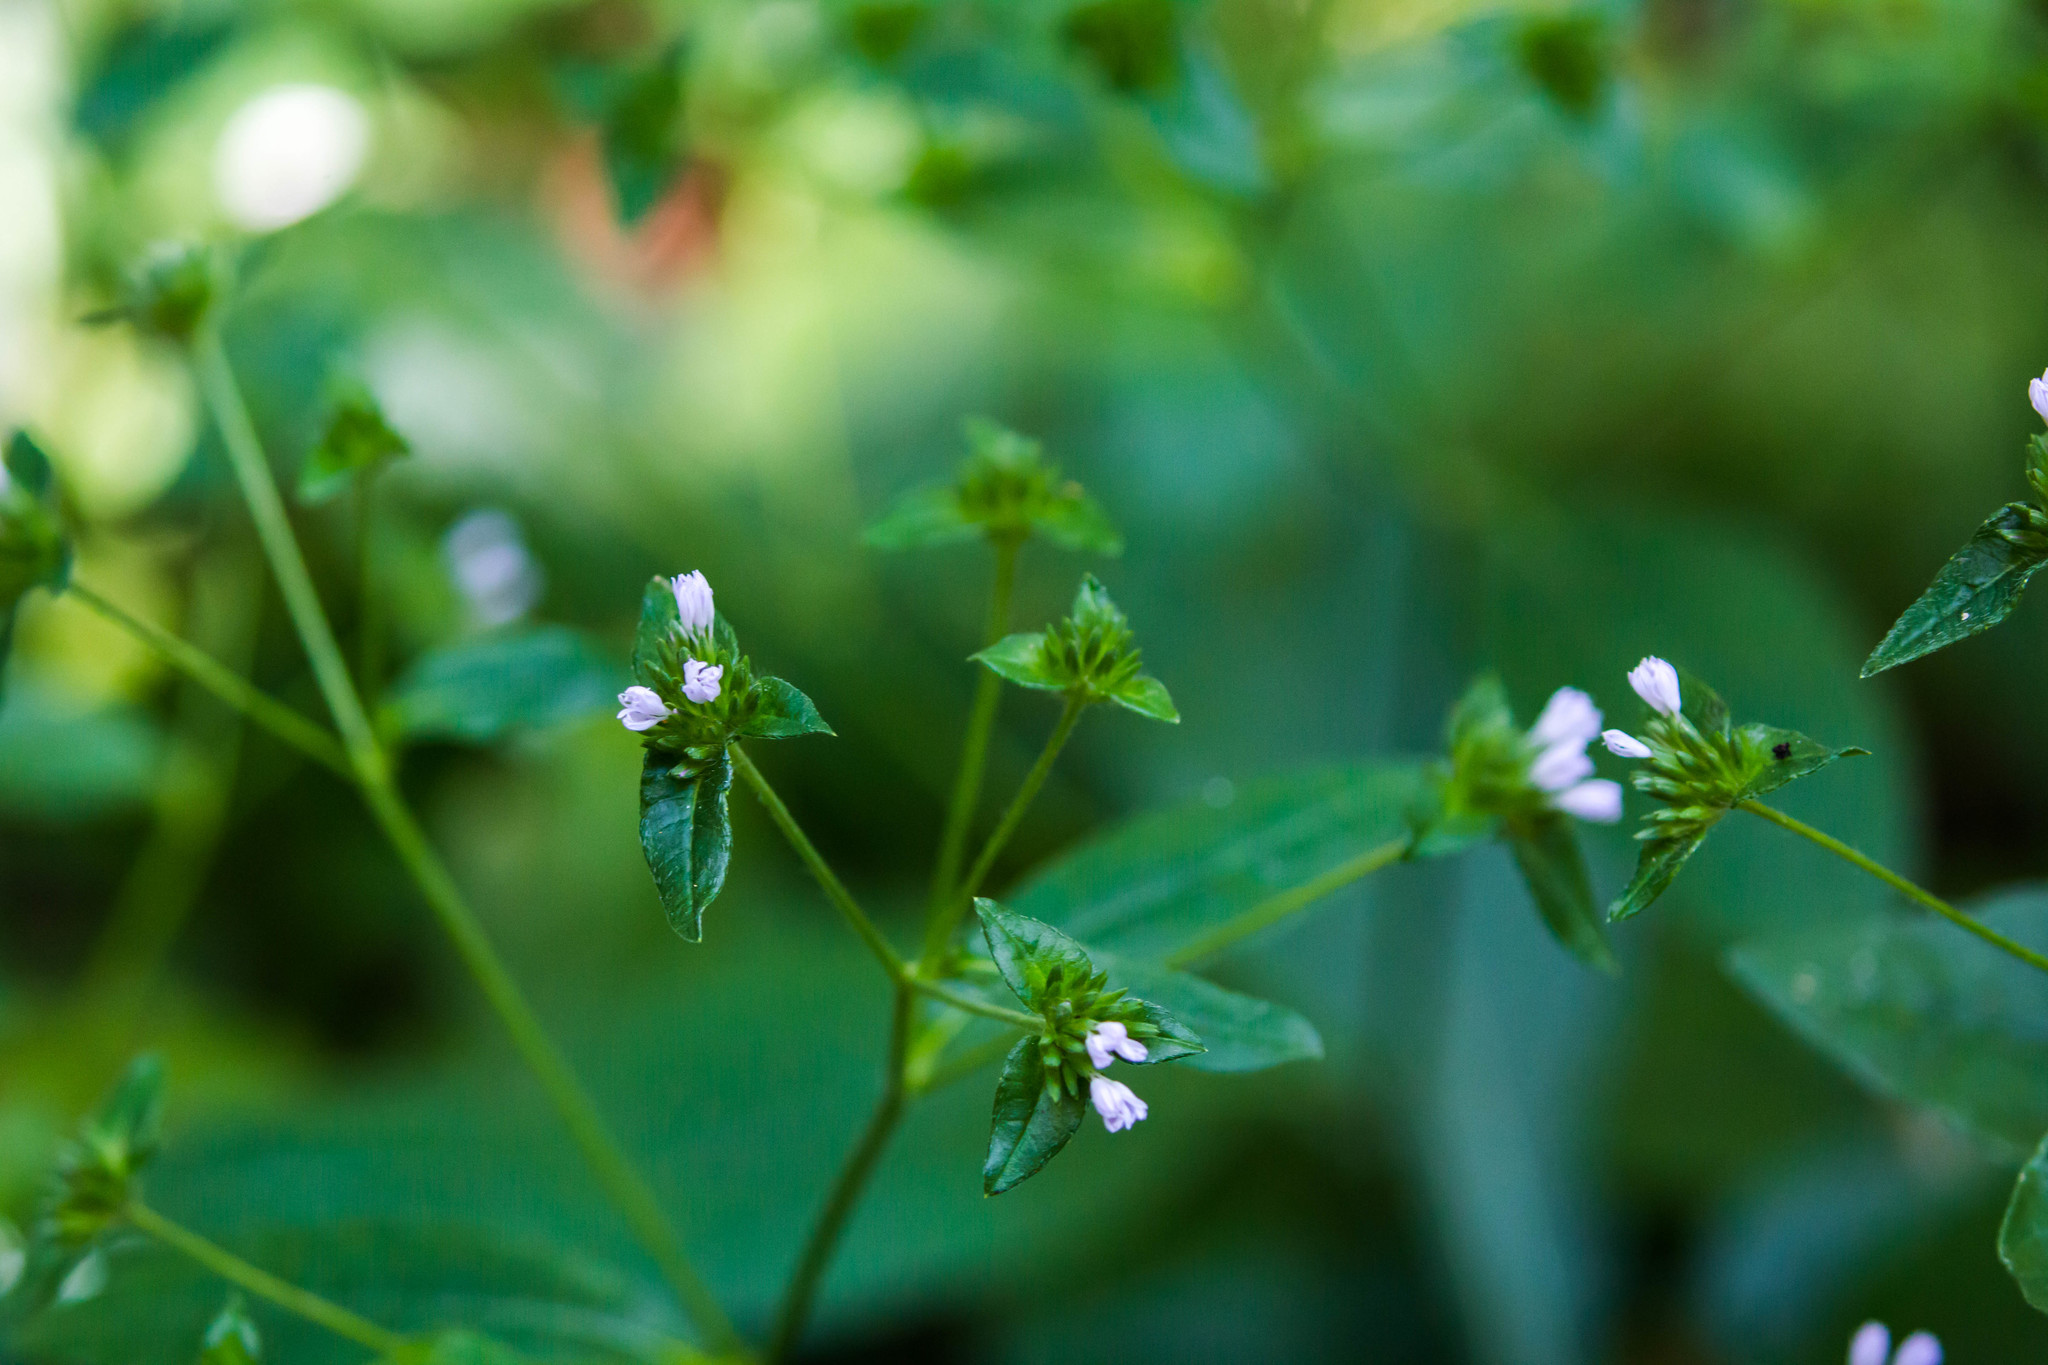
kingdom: Plantae
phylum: Tracheophyta
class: Magnoliopsida
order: Asterales
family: Asteraceae
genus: Elephantopus
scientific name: Elephantopus carolinianus
